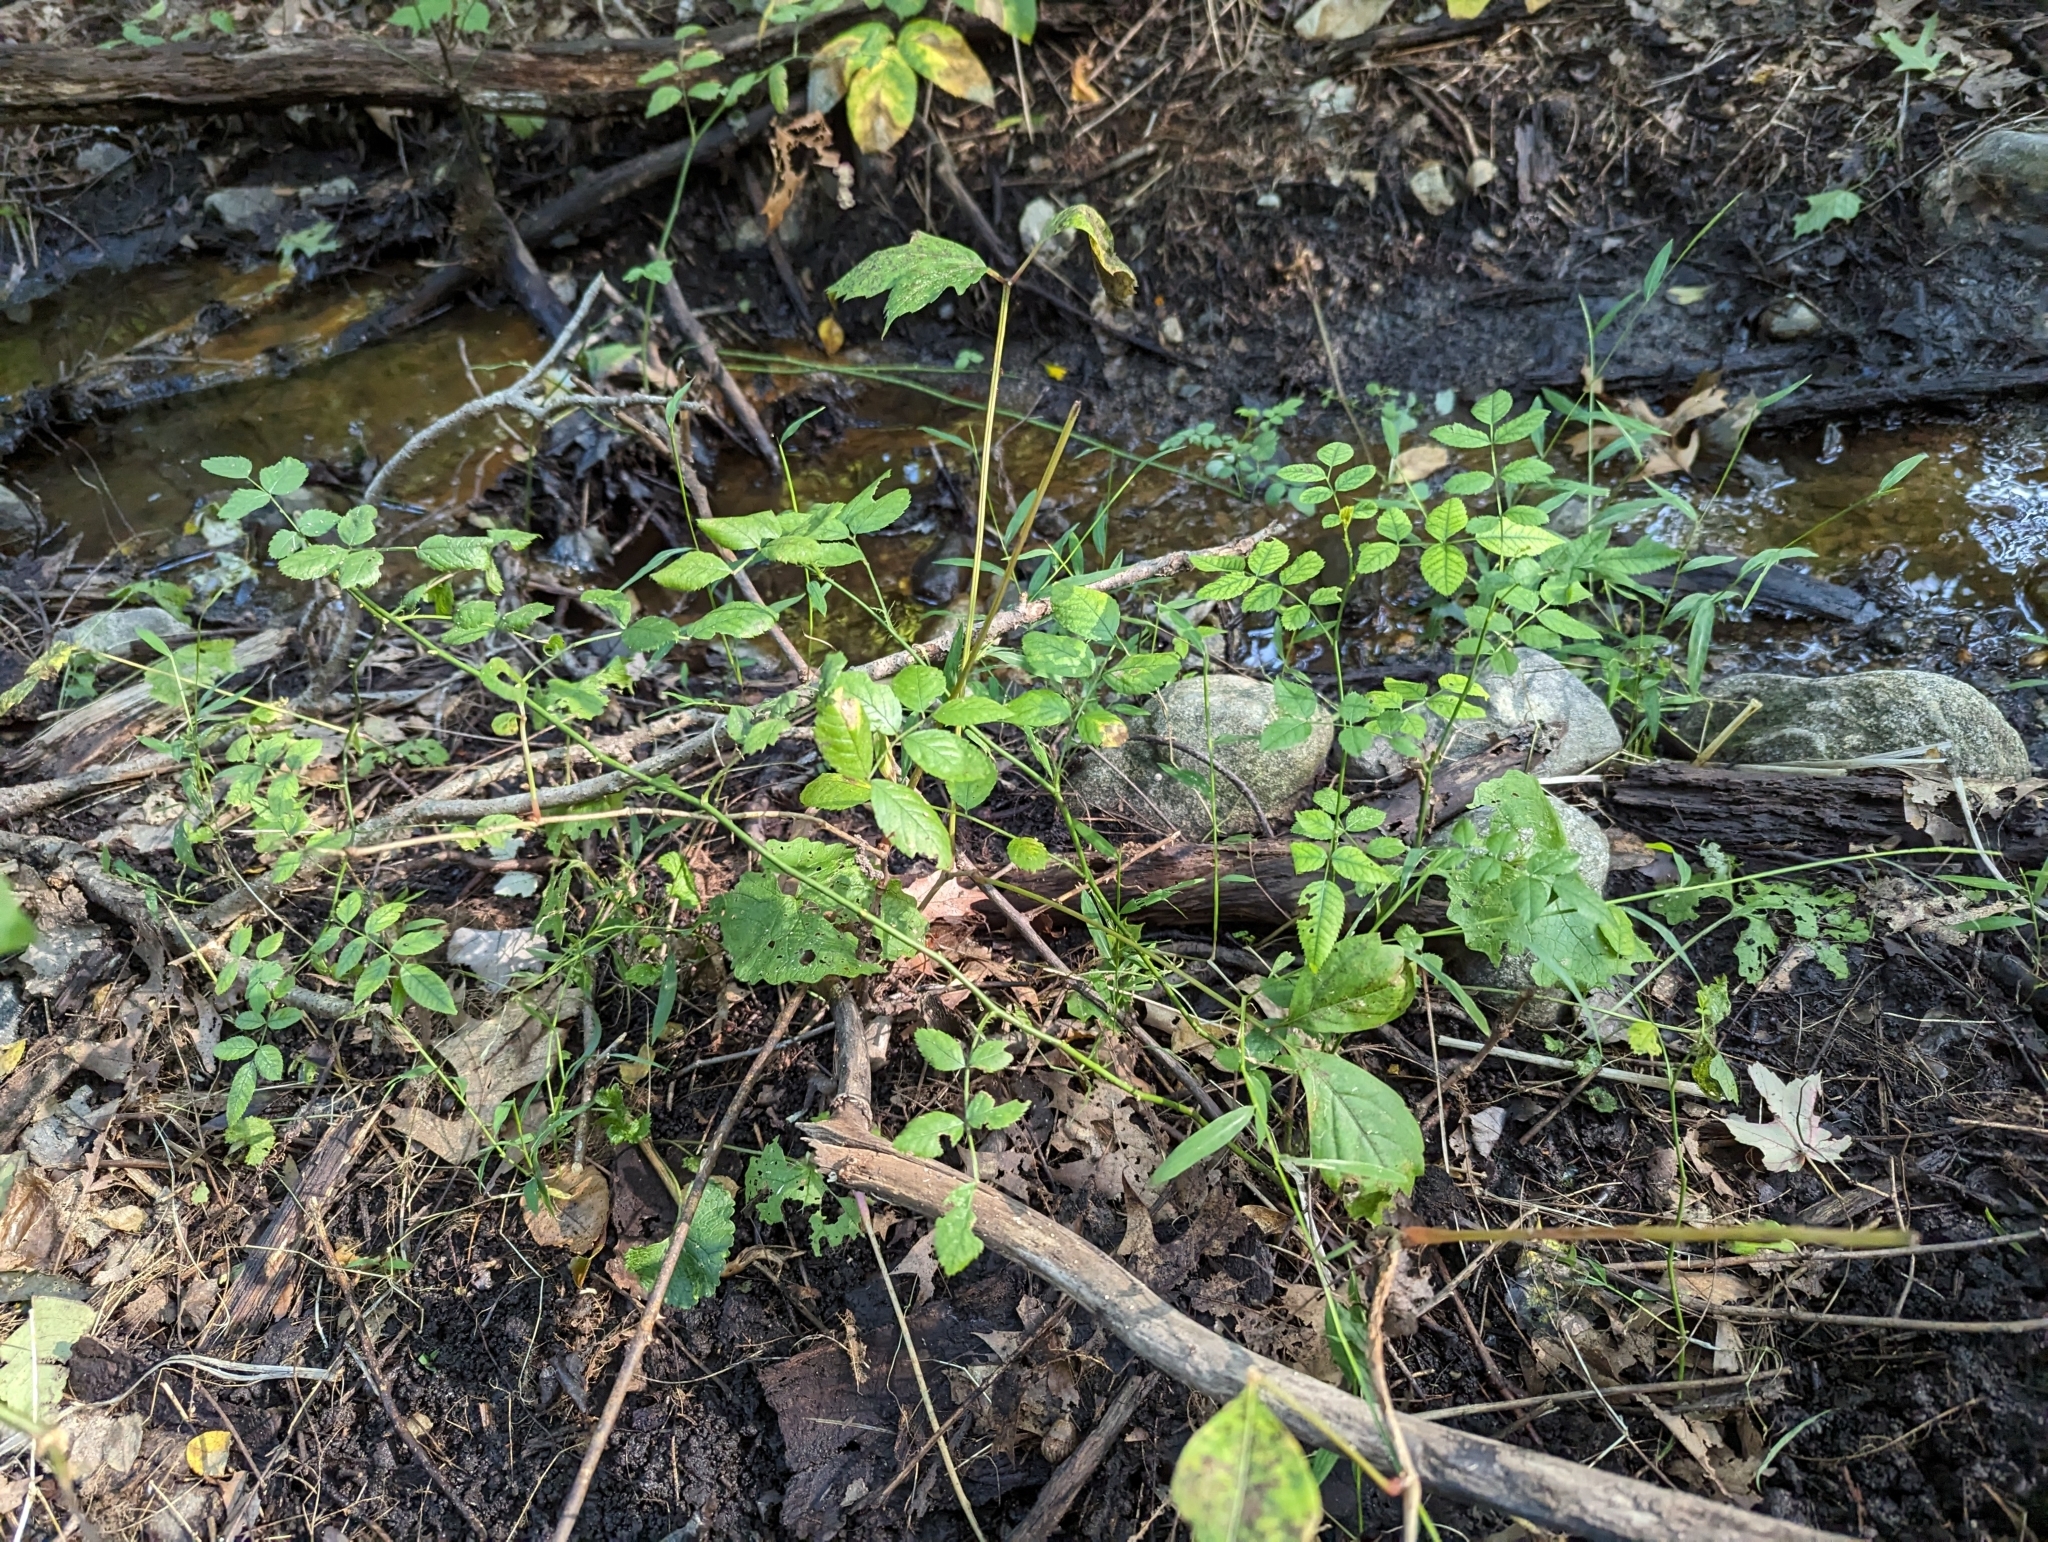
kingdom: Plantae
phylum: Tracheophyta
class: Magnoliopsida
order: Rosales
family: Rosaceae
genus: Rosa
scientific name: Rosa multiflora
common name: Multiflora rose
